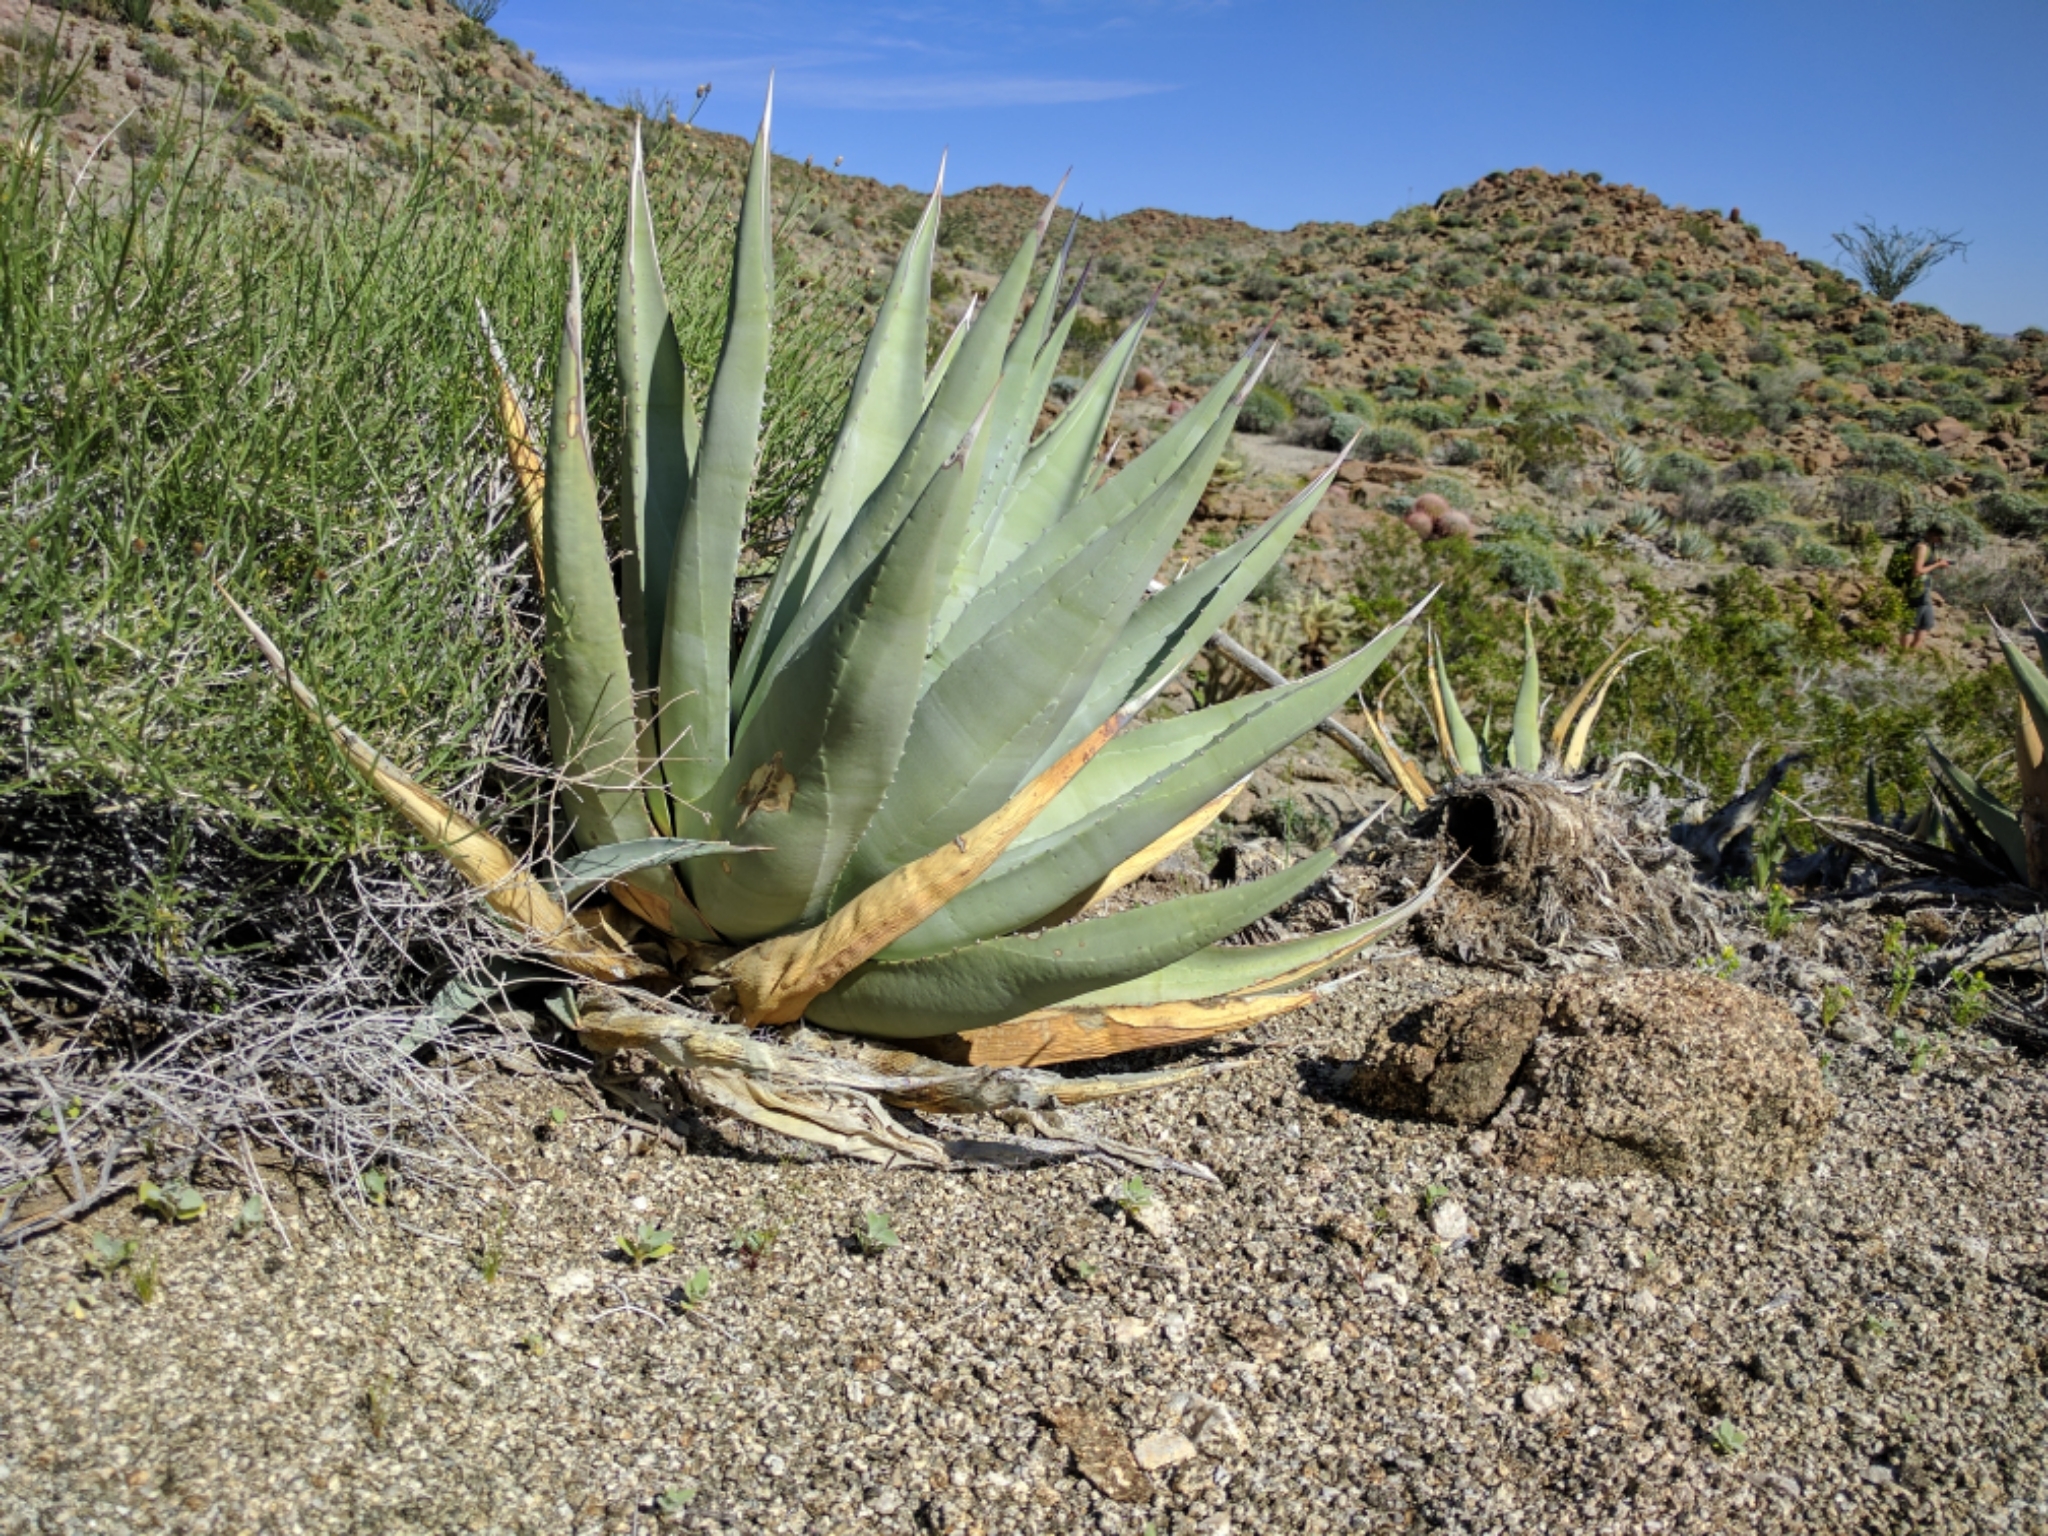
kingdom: Plantae
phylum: Tracheophyta
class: Liliopsida
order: Asparagales
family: Asparagaceae
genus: Agave
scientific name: Agave deserti
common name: Desert agave
